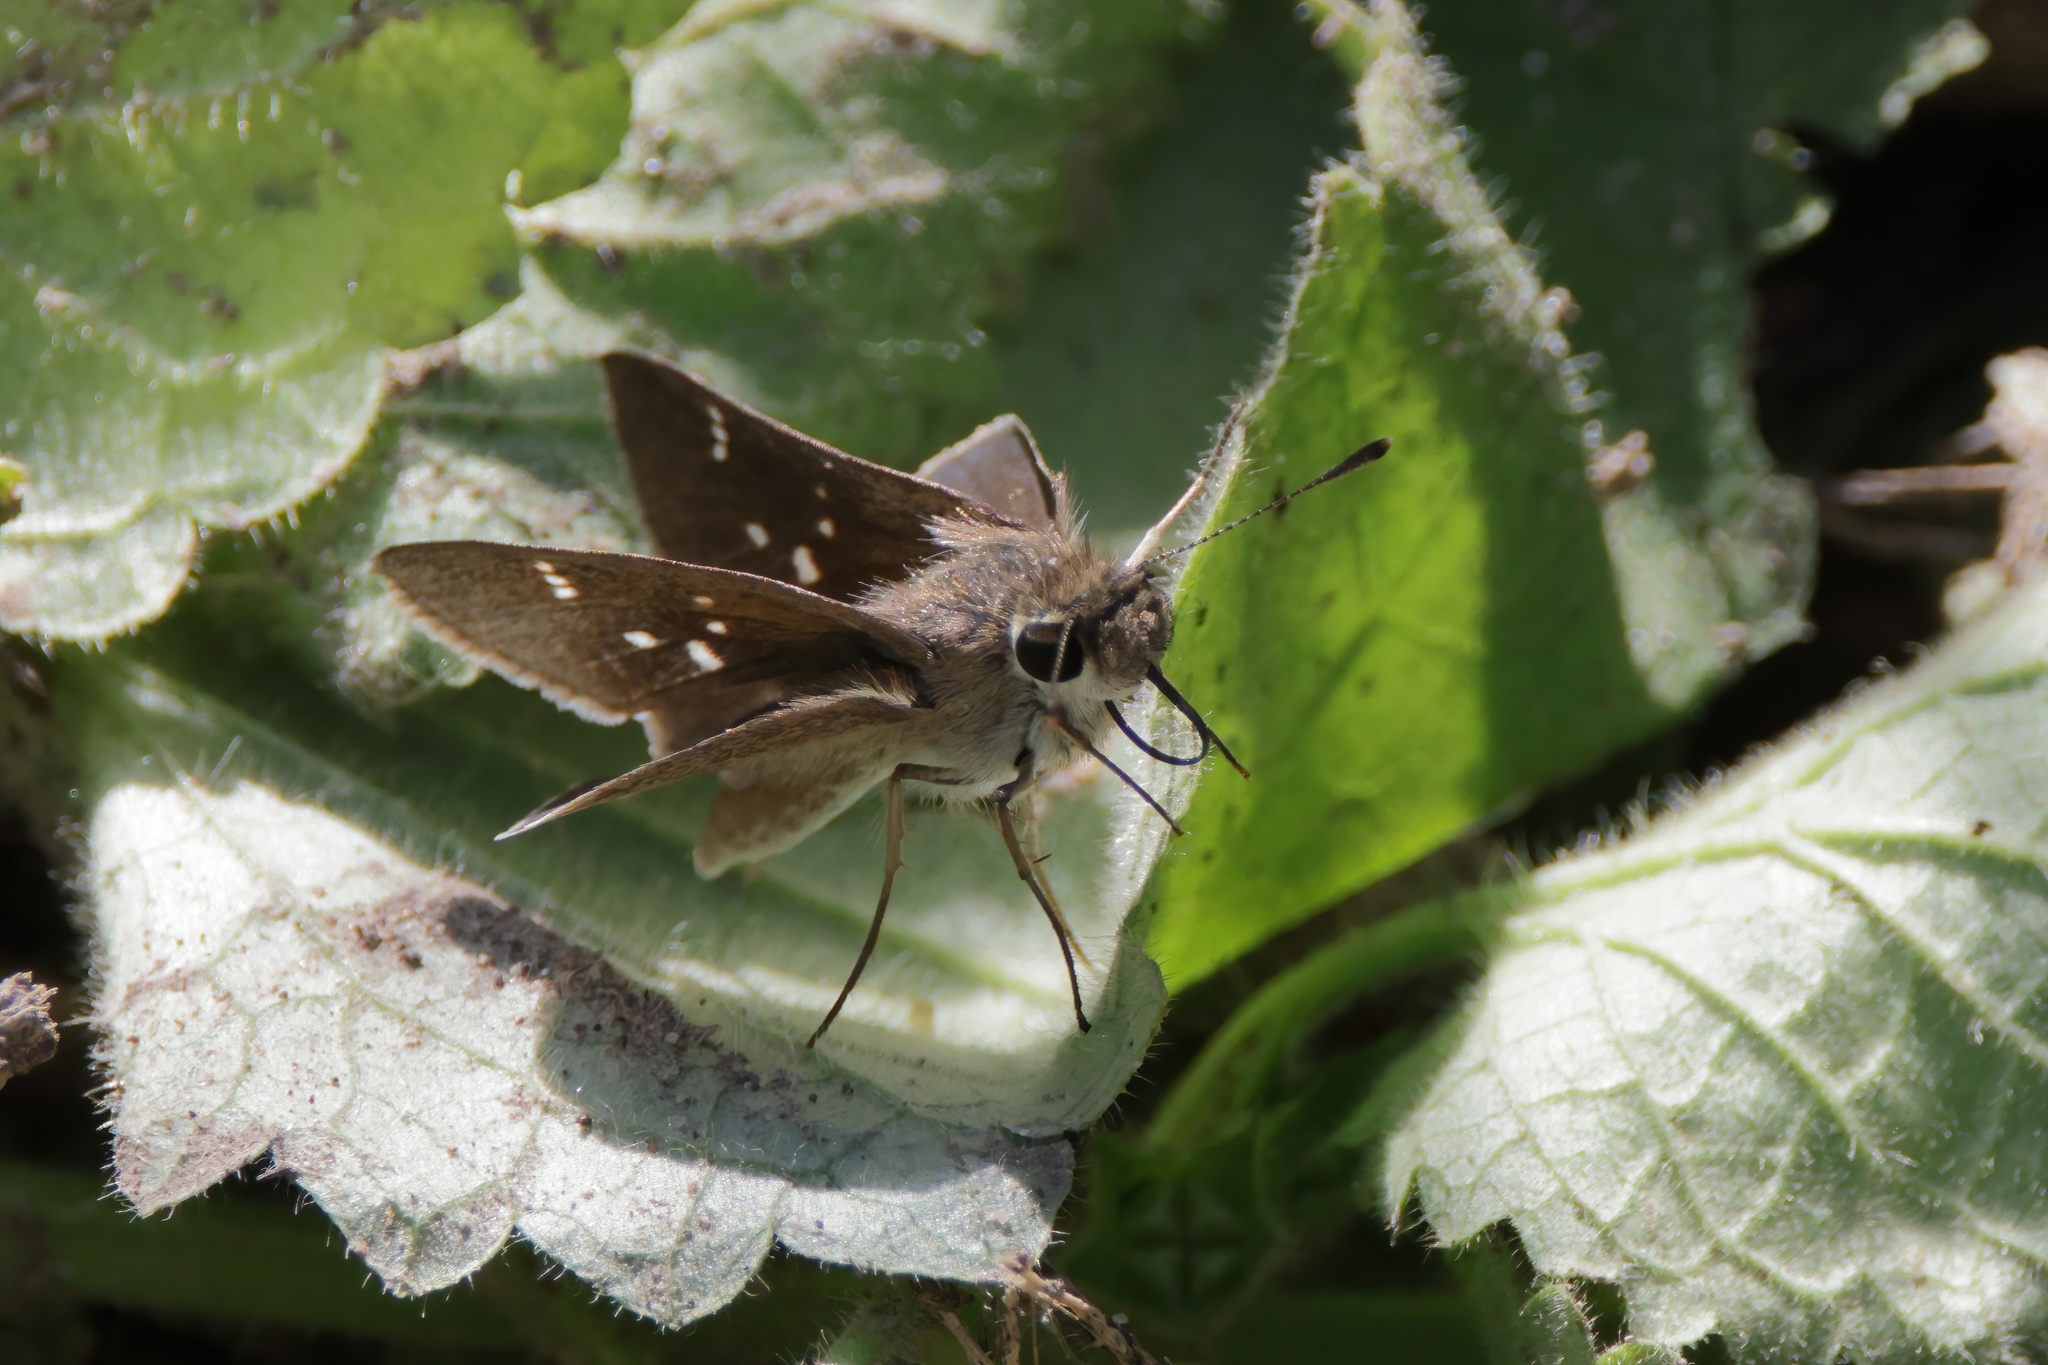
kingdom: Animalia
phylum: Arthropoda
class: Insecta
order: Lepidoptera
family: Hesperiidae
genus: Lerodea
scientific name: Lerodea eufala
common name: Eufala skipper
